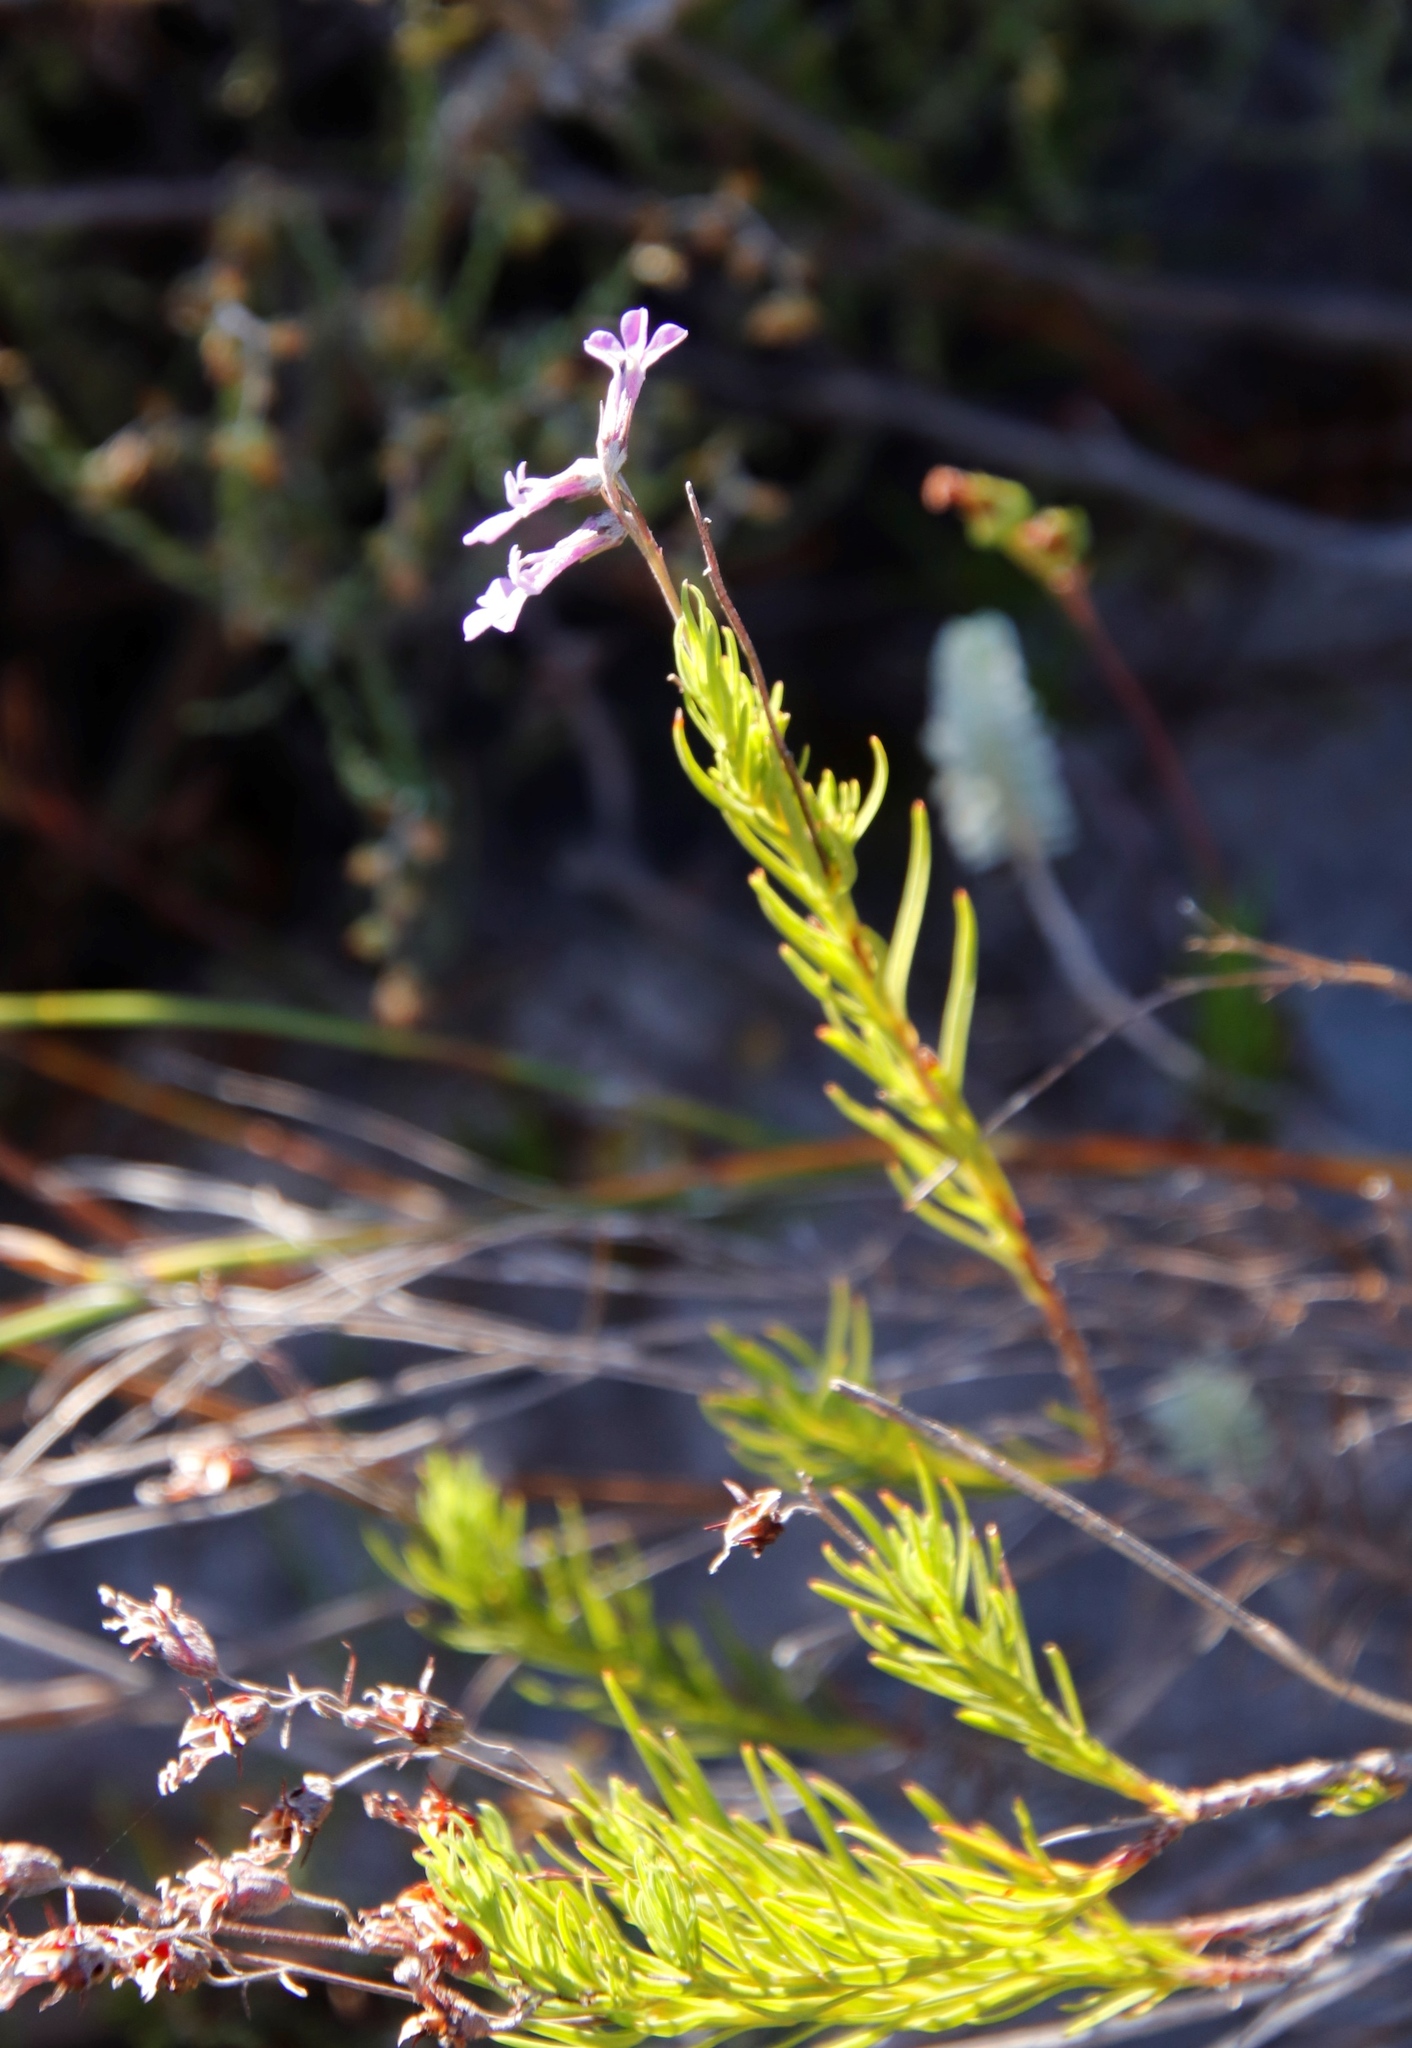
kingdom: Plantae
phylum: Tracheophyta
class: Magnoliopsida
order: Asterales
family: Campanulaceae
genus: Lobelia
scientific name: Lobelia pinifolia
